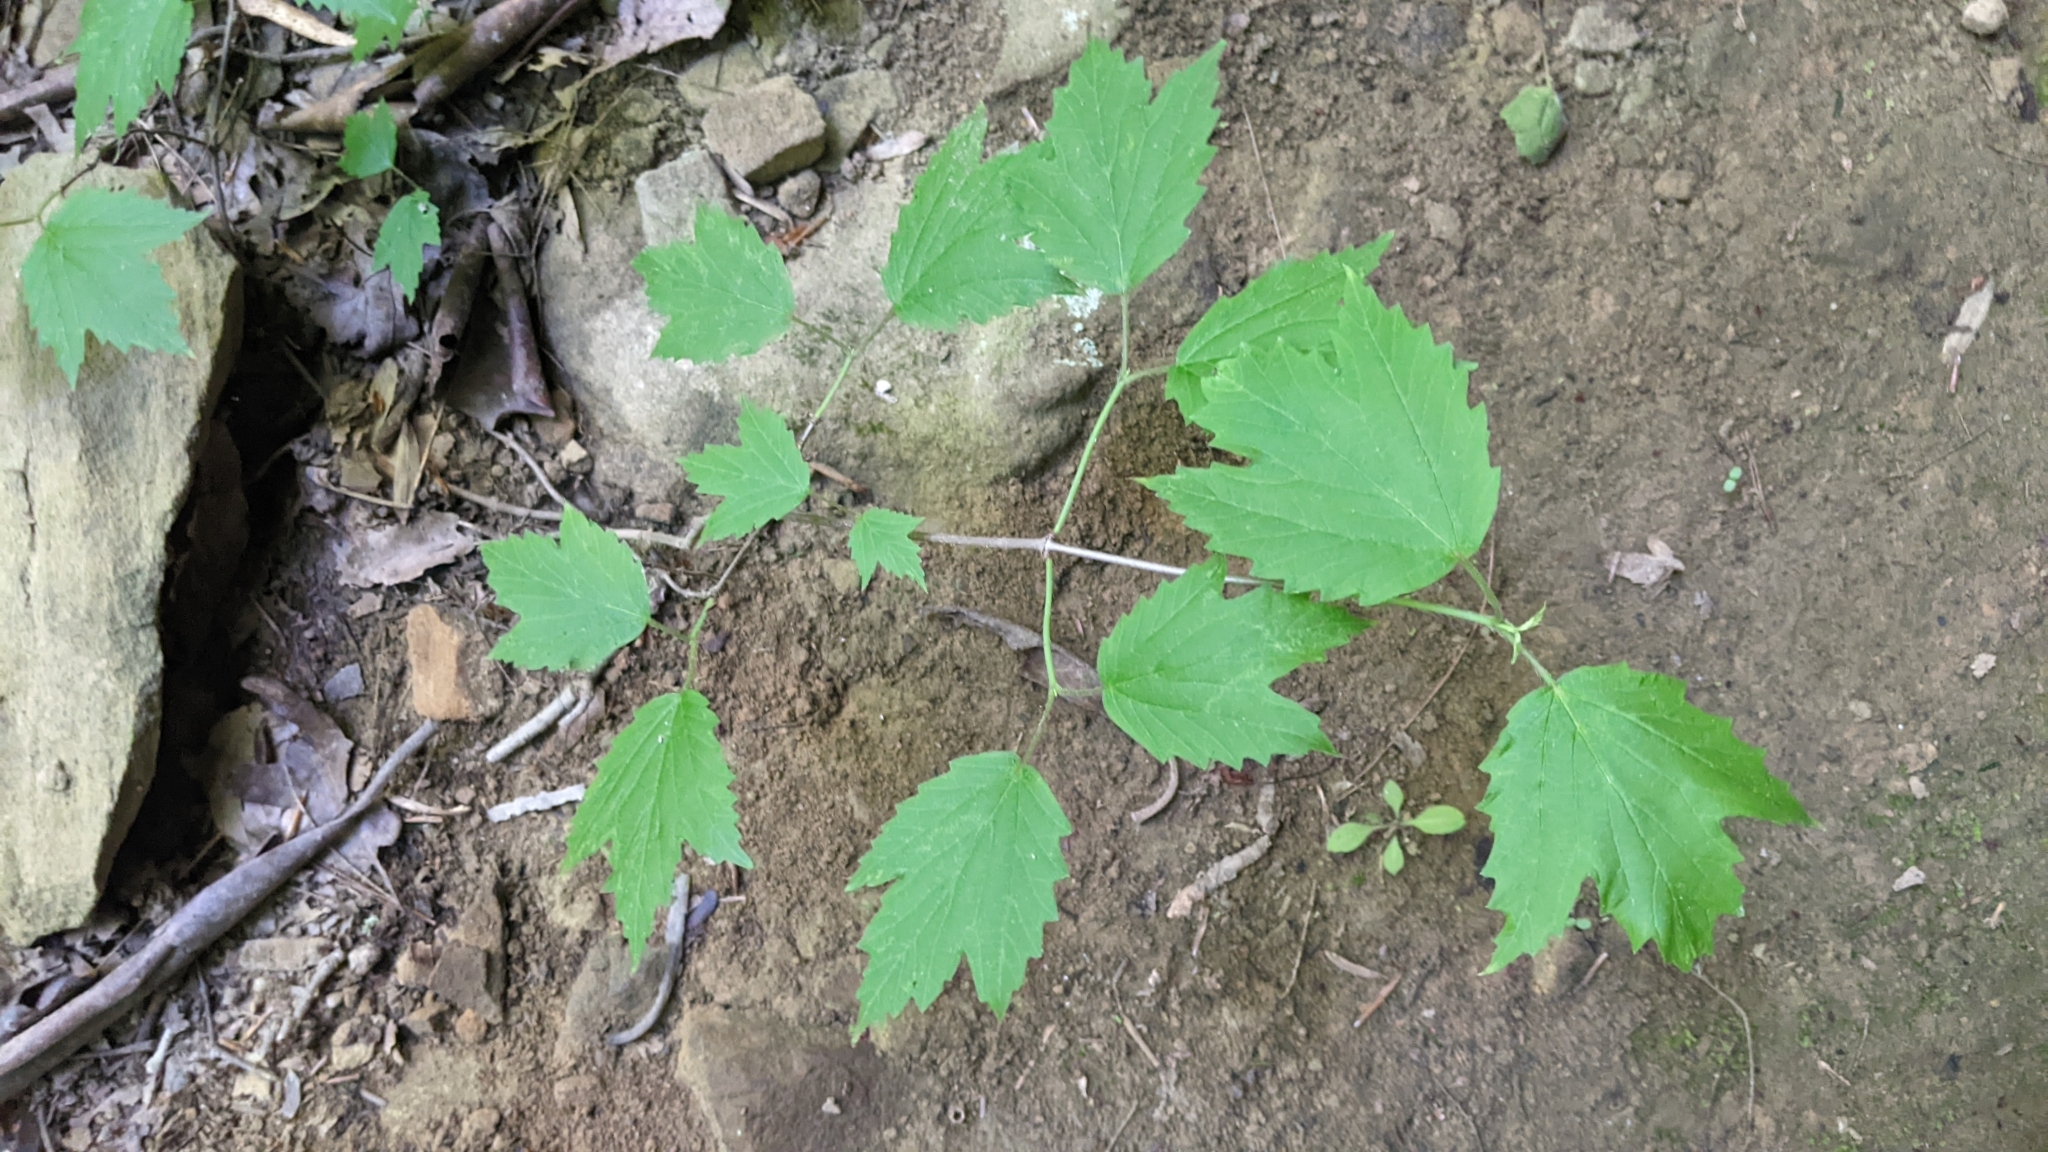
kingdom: Plantae
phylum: Tracheophyta
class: Magnoliopsida
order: Dipsacales
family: Viburnaceae
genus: Viburnum
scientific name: Viburnum acerifolium
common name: Dockmackie
